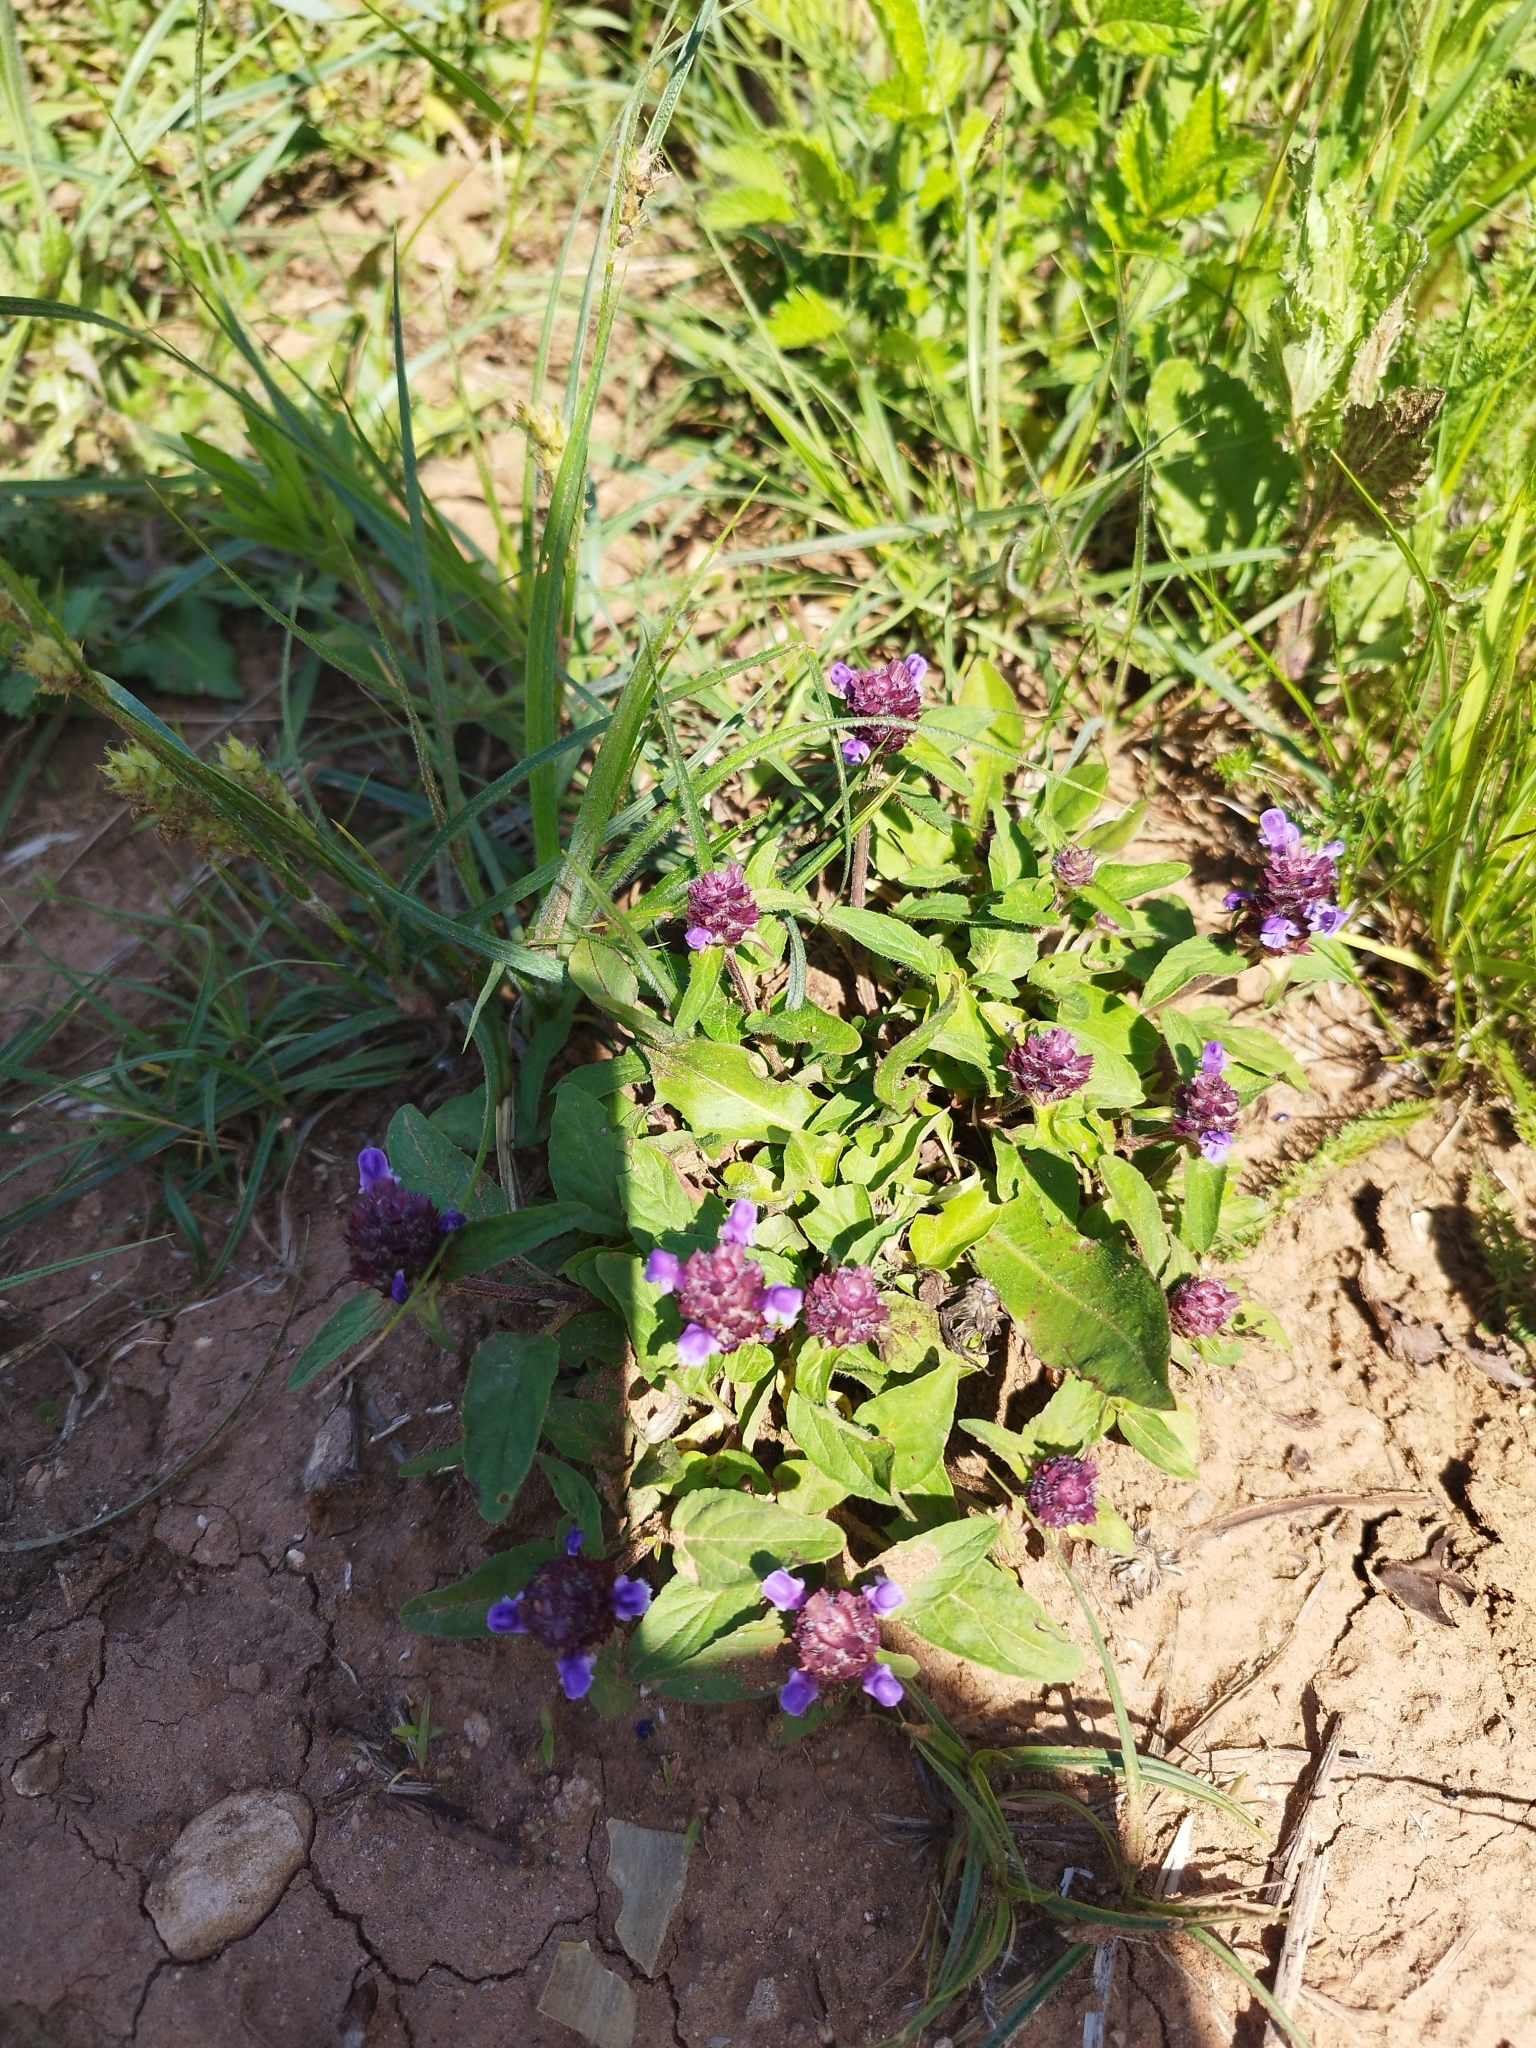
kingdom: Plantae
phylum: Tracheophyta
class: Magnoliopsida
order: Lamiales
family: Lamiaceae
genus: Prunella
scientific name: Prunella vulgaris
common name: Heal-all
